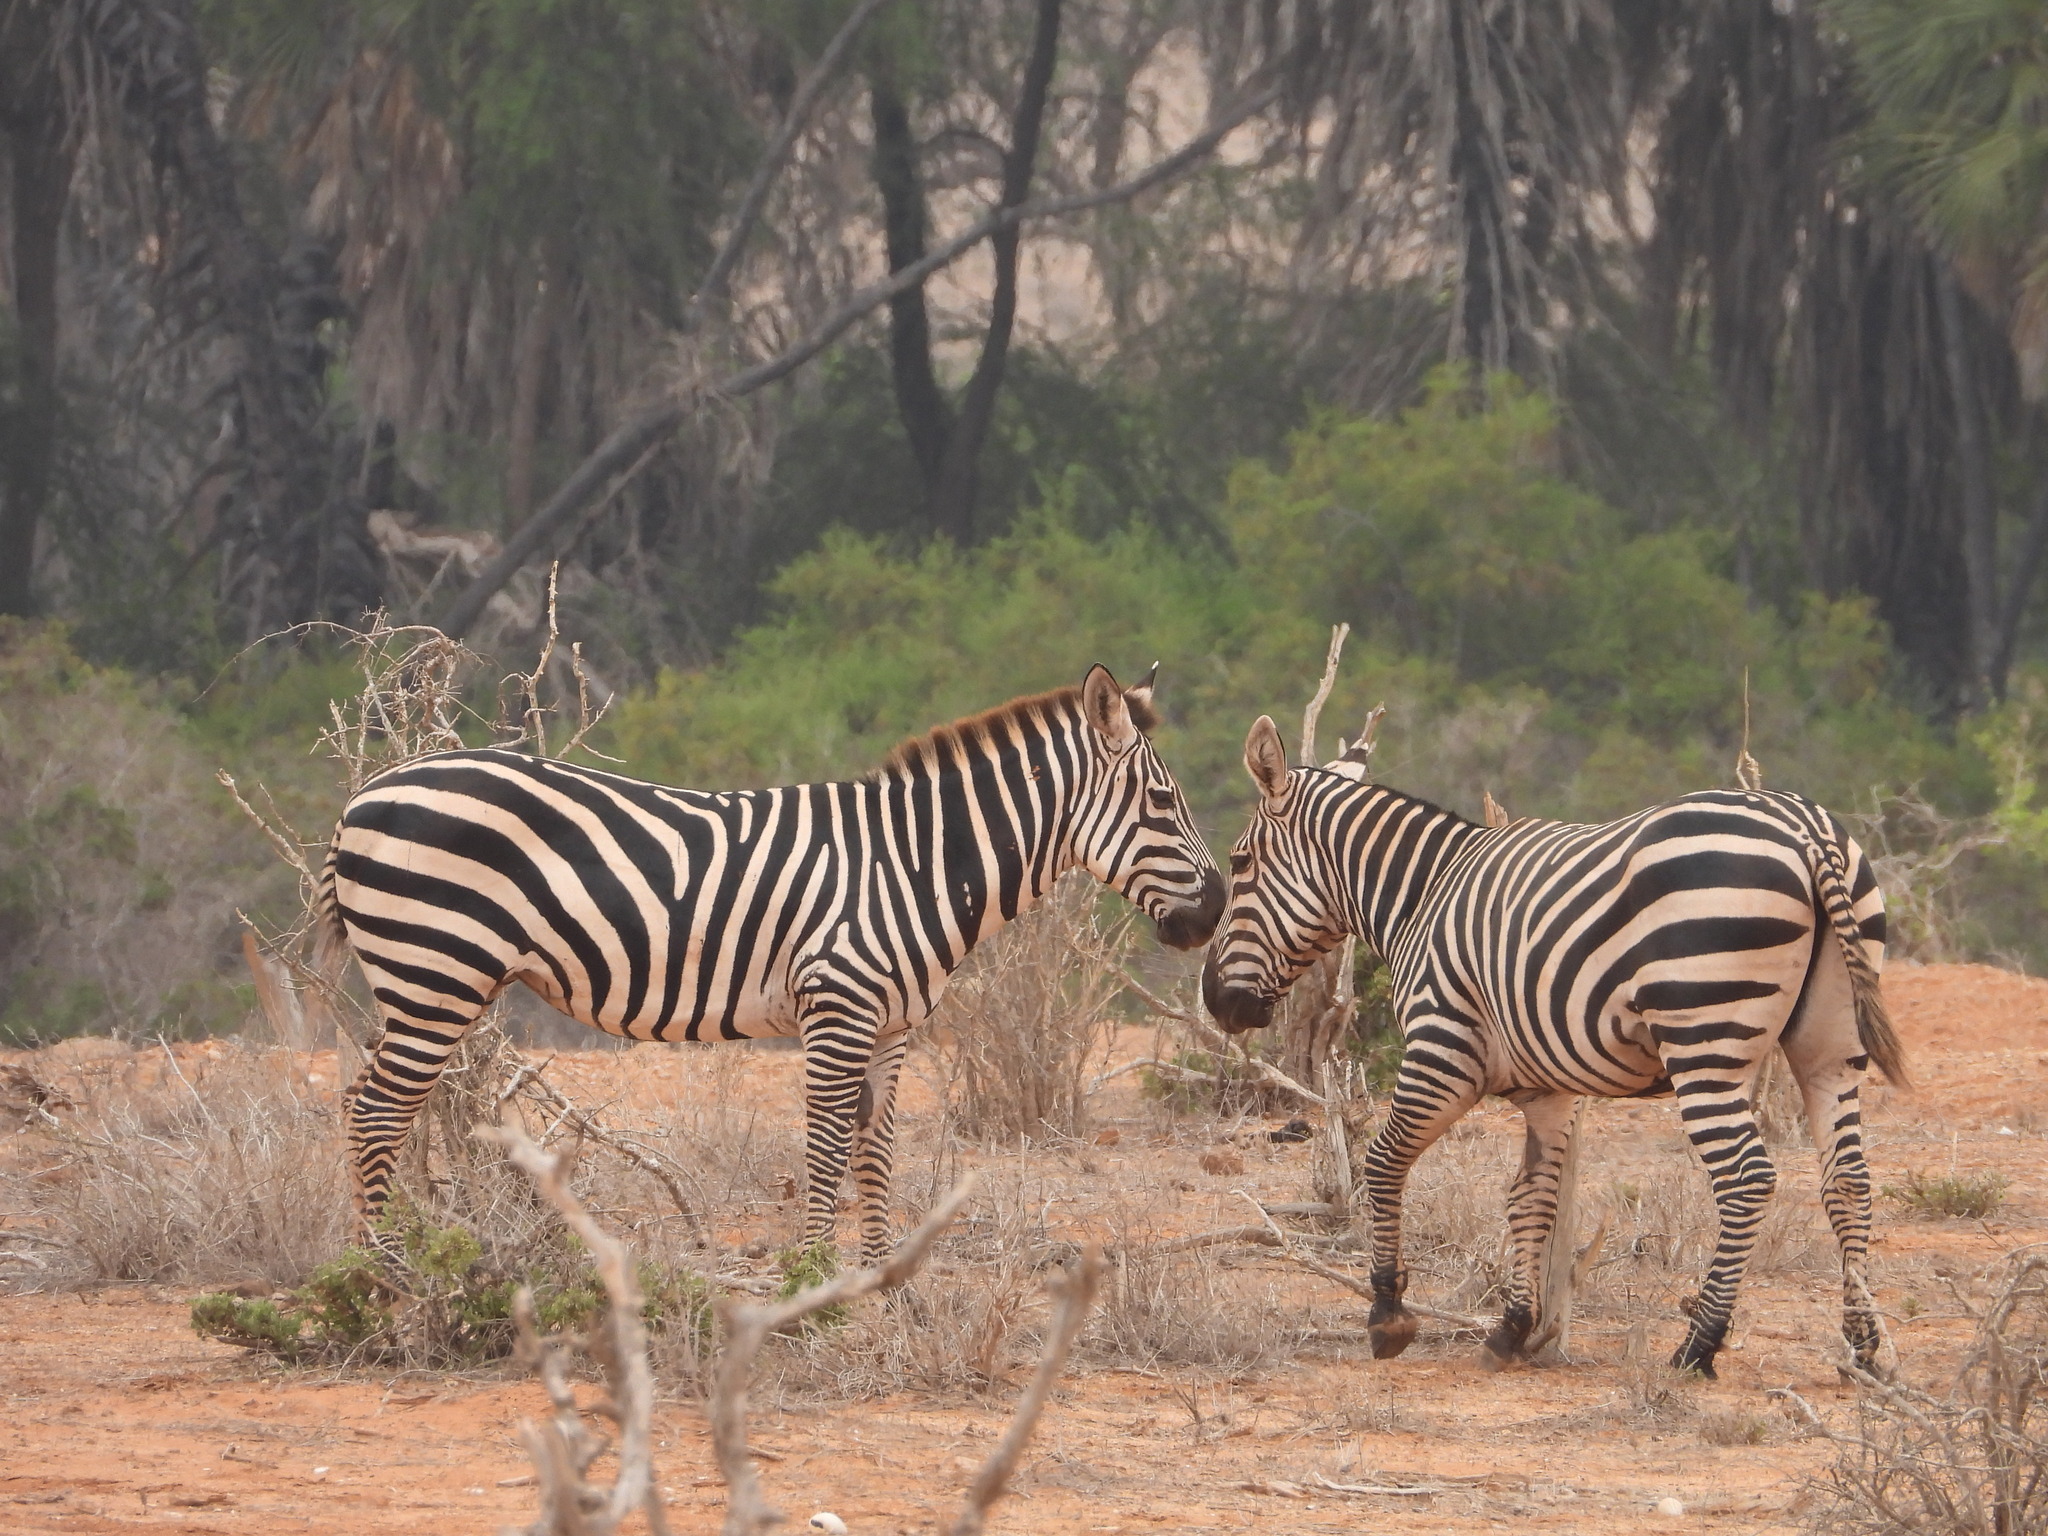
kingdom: Animalia
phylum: Chordata
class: Mammalia
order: Perissodactyla
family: Equidae
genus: Equus
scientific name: Equus quagga
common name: Plains zebra
